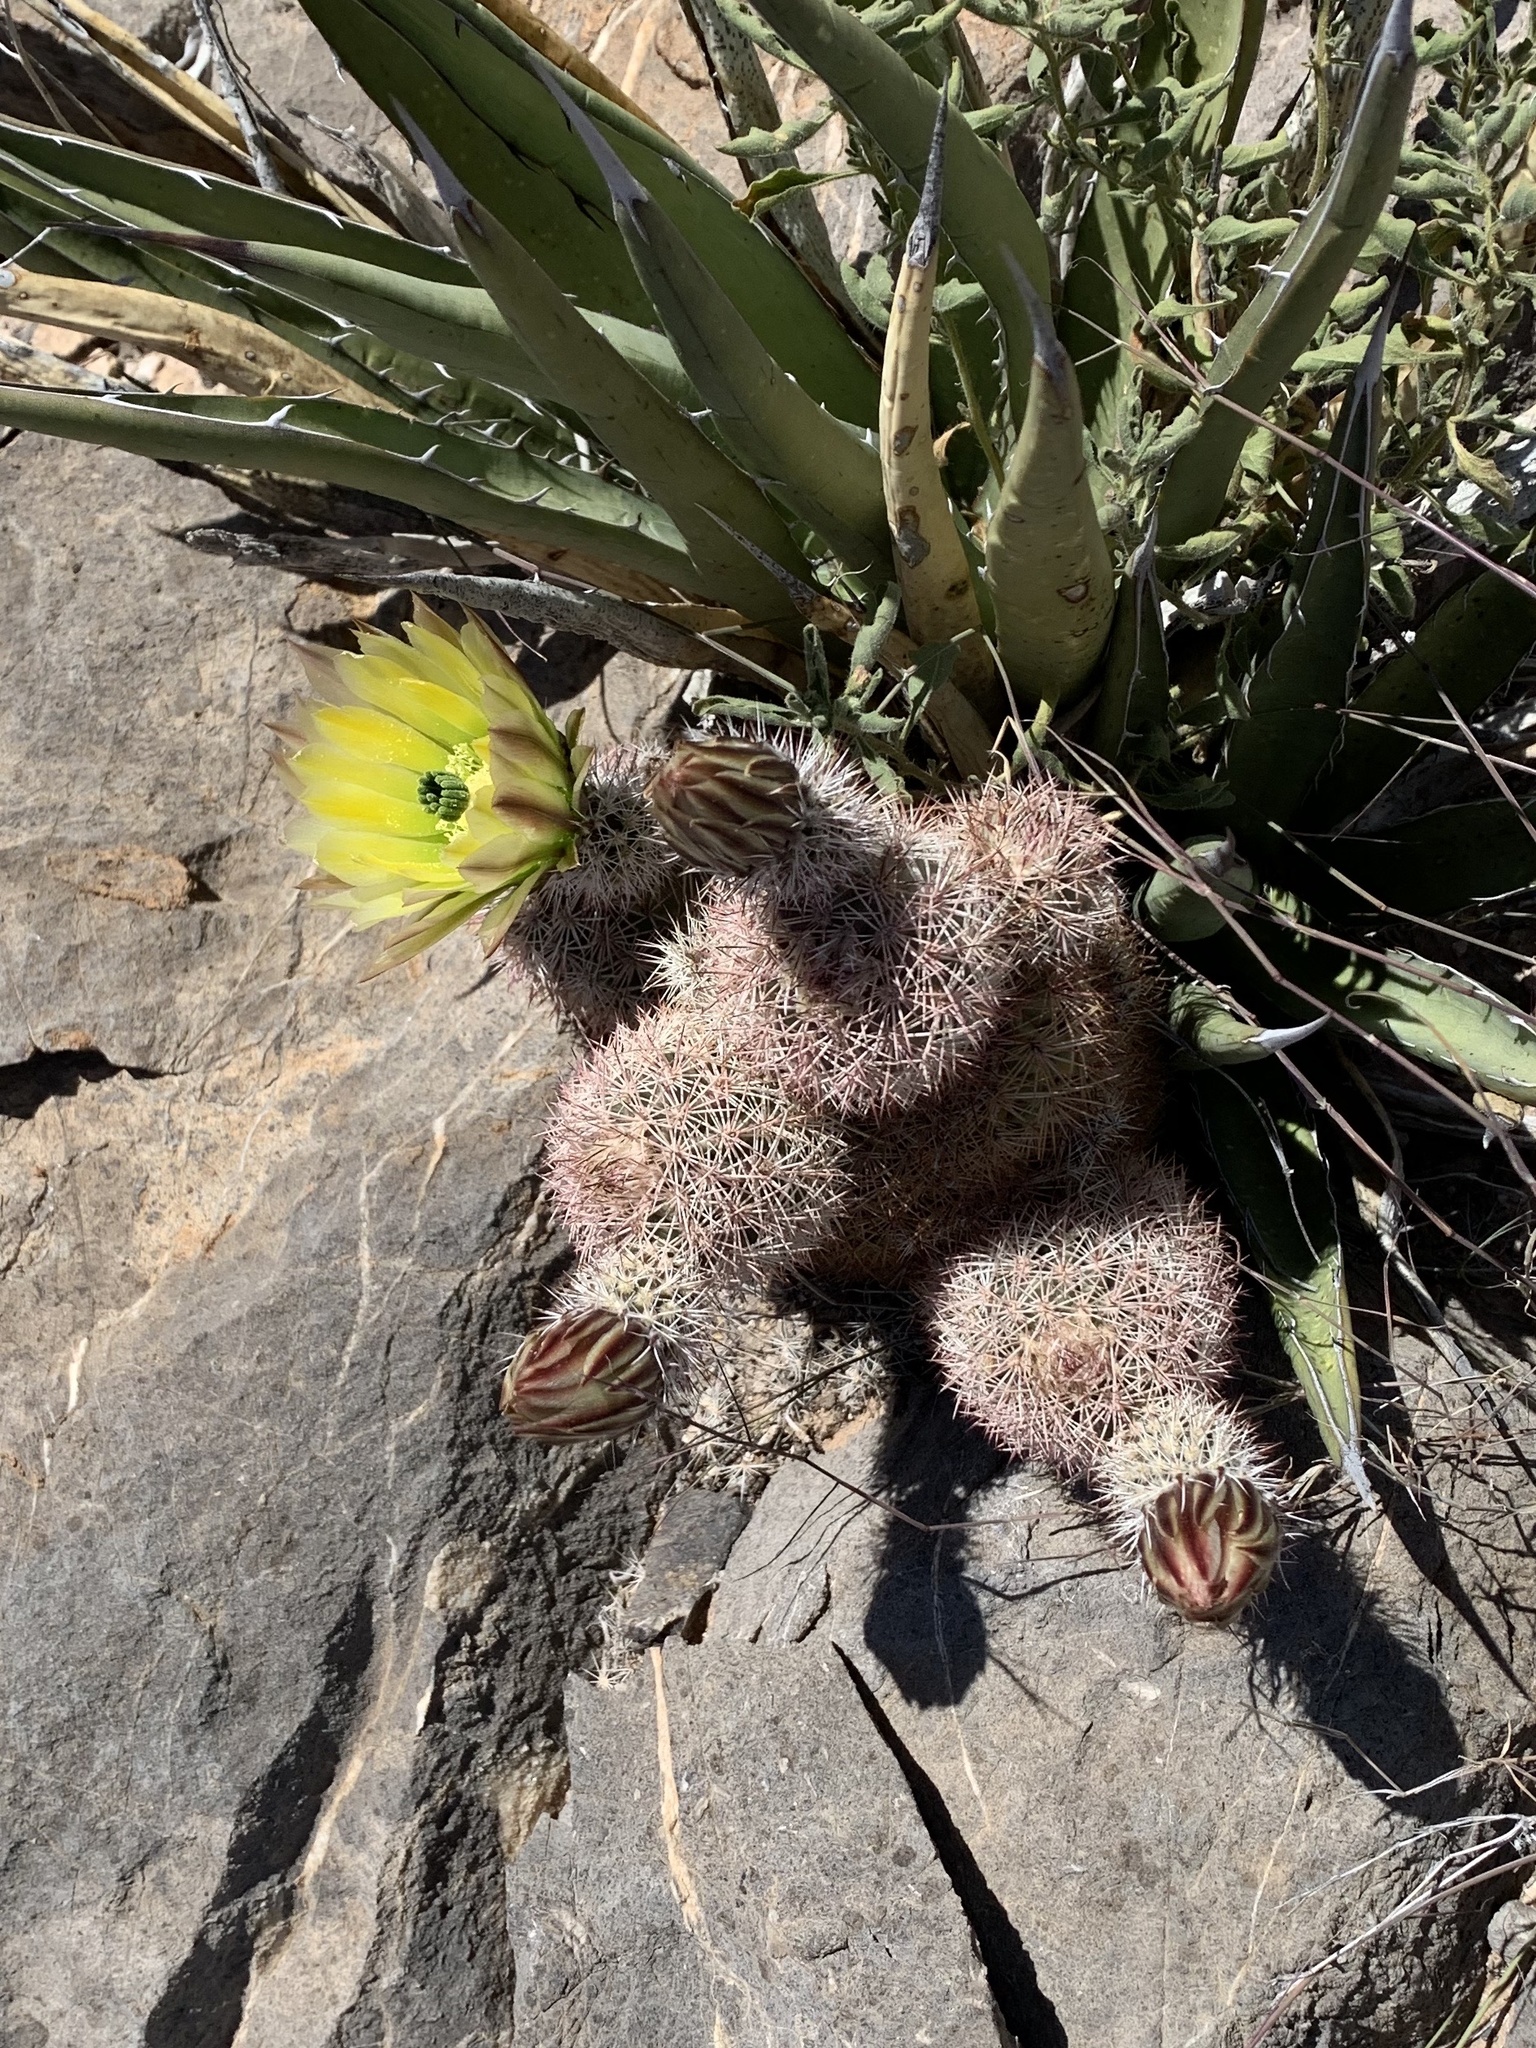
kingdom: Plantae
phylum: Tracheophyta
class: Magnoliopsida
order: Caryophyllales
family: Cactaceae
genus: Echinocereus
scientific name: Echinocereus dasyacanthus
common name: Spiny hedgehog cactus
